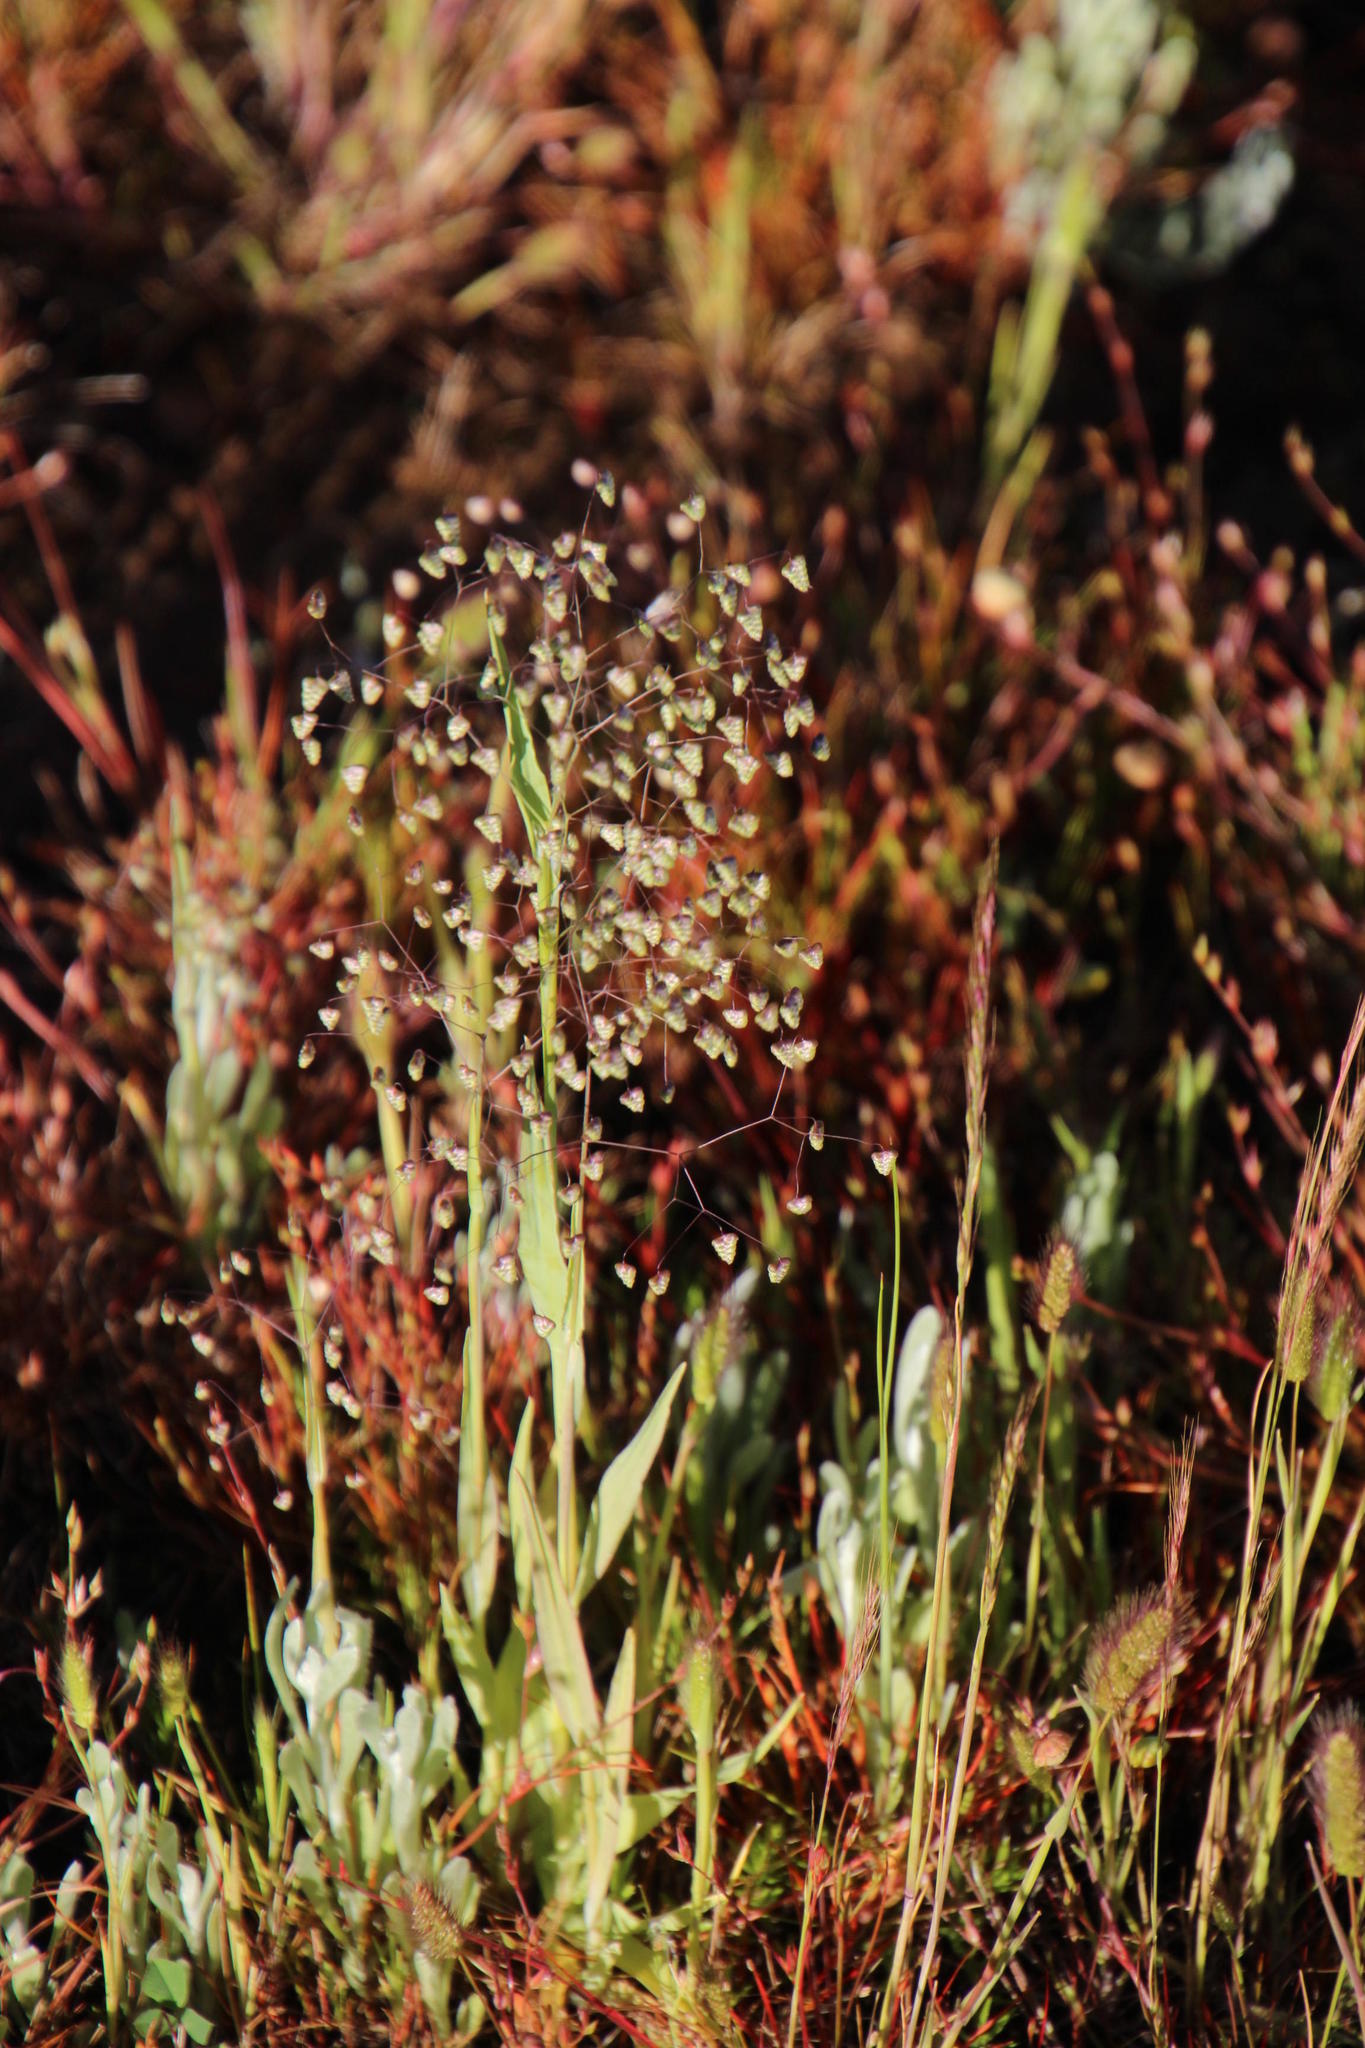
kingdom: Plantae
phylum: Tracheophyta
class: Liliopsida
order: Poales
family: Poaceae
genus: Briza
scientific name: Briza minor
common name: Lesser quaking-grass
